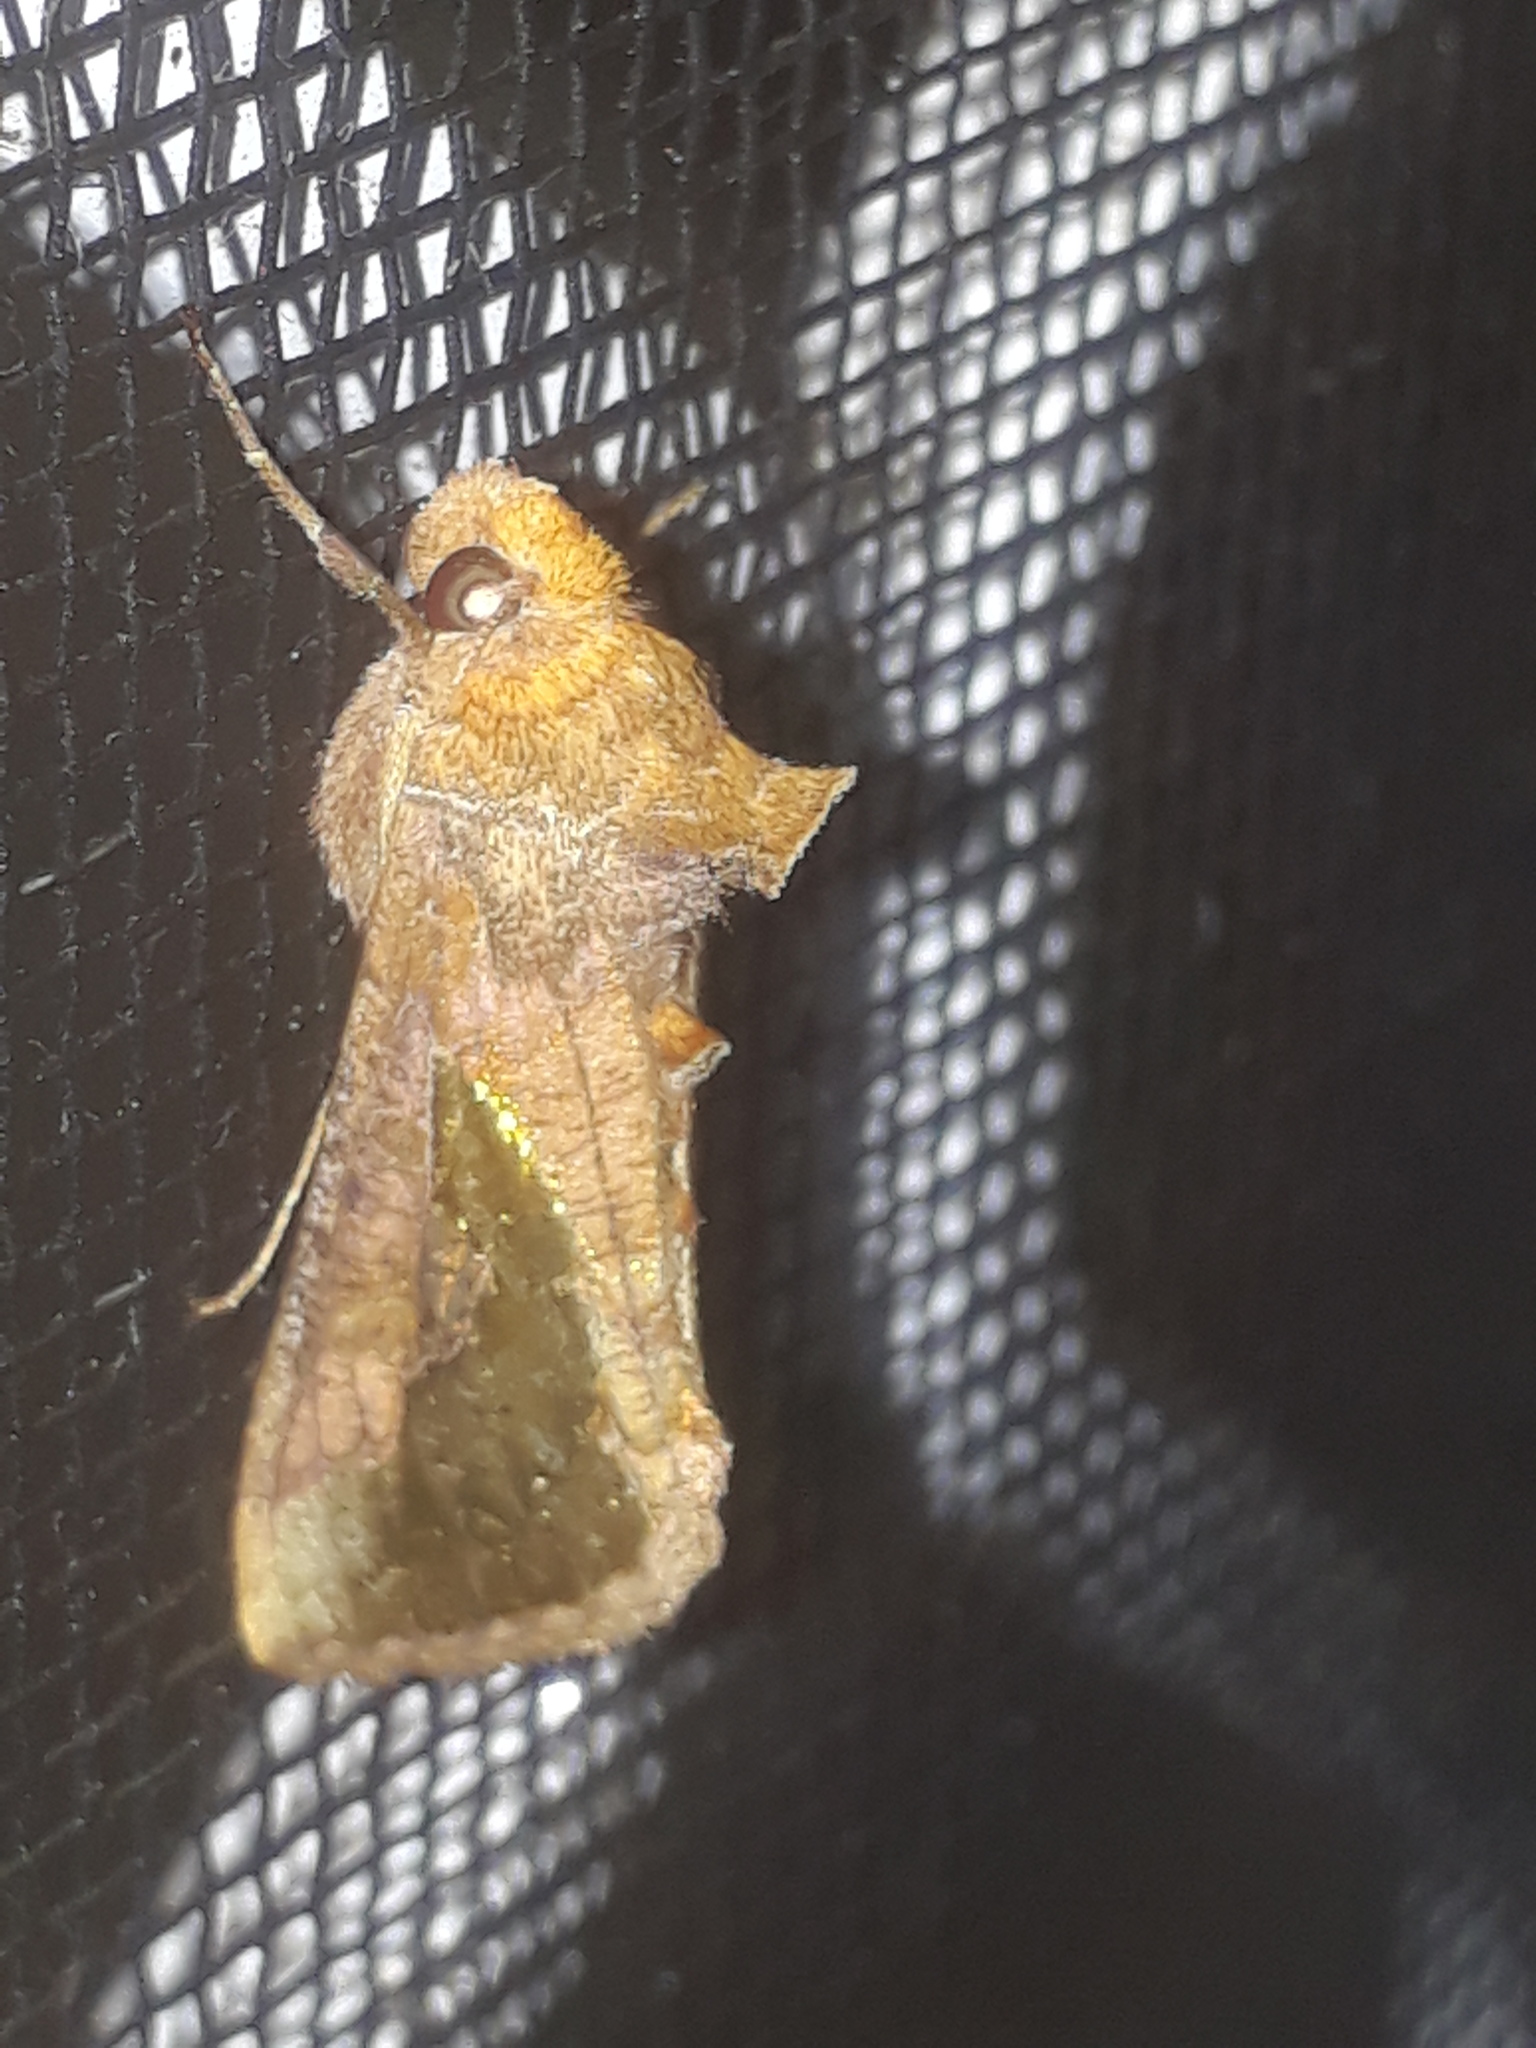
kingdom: Animalia
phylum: Arthropoda
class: Insecta
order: Lepidoptera
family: Noctuidae
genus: Thysanoplusia
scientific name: Thysanoplusia orichalcea
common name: Slender burnished brass, golden plusia
